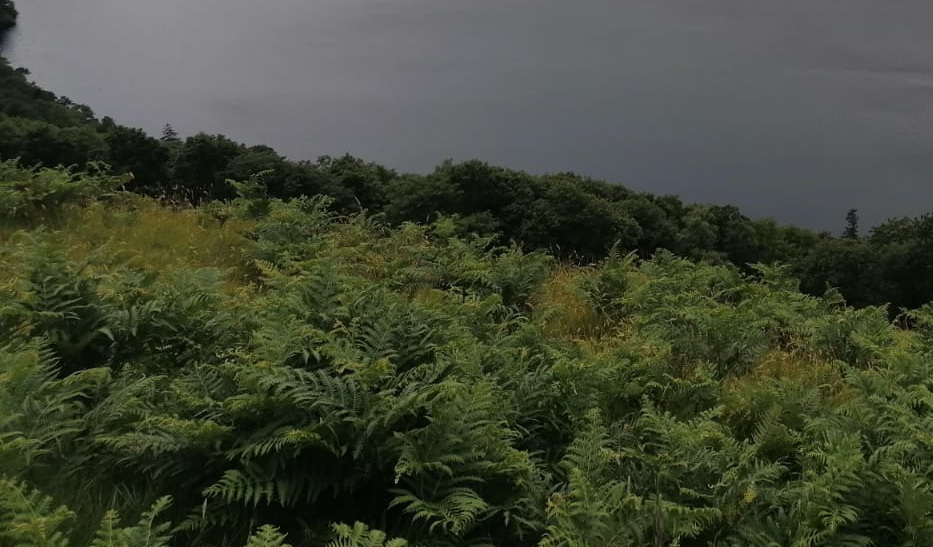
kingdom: Plantae
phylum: Tracheophyta
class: Polypodiopsida
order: Polypodiales
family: Dennstaedtiaceae
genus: Pteridium
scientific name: Pteridium aquilinum
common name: Bracken
